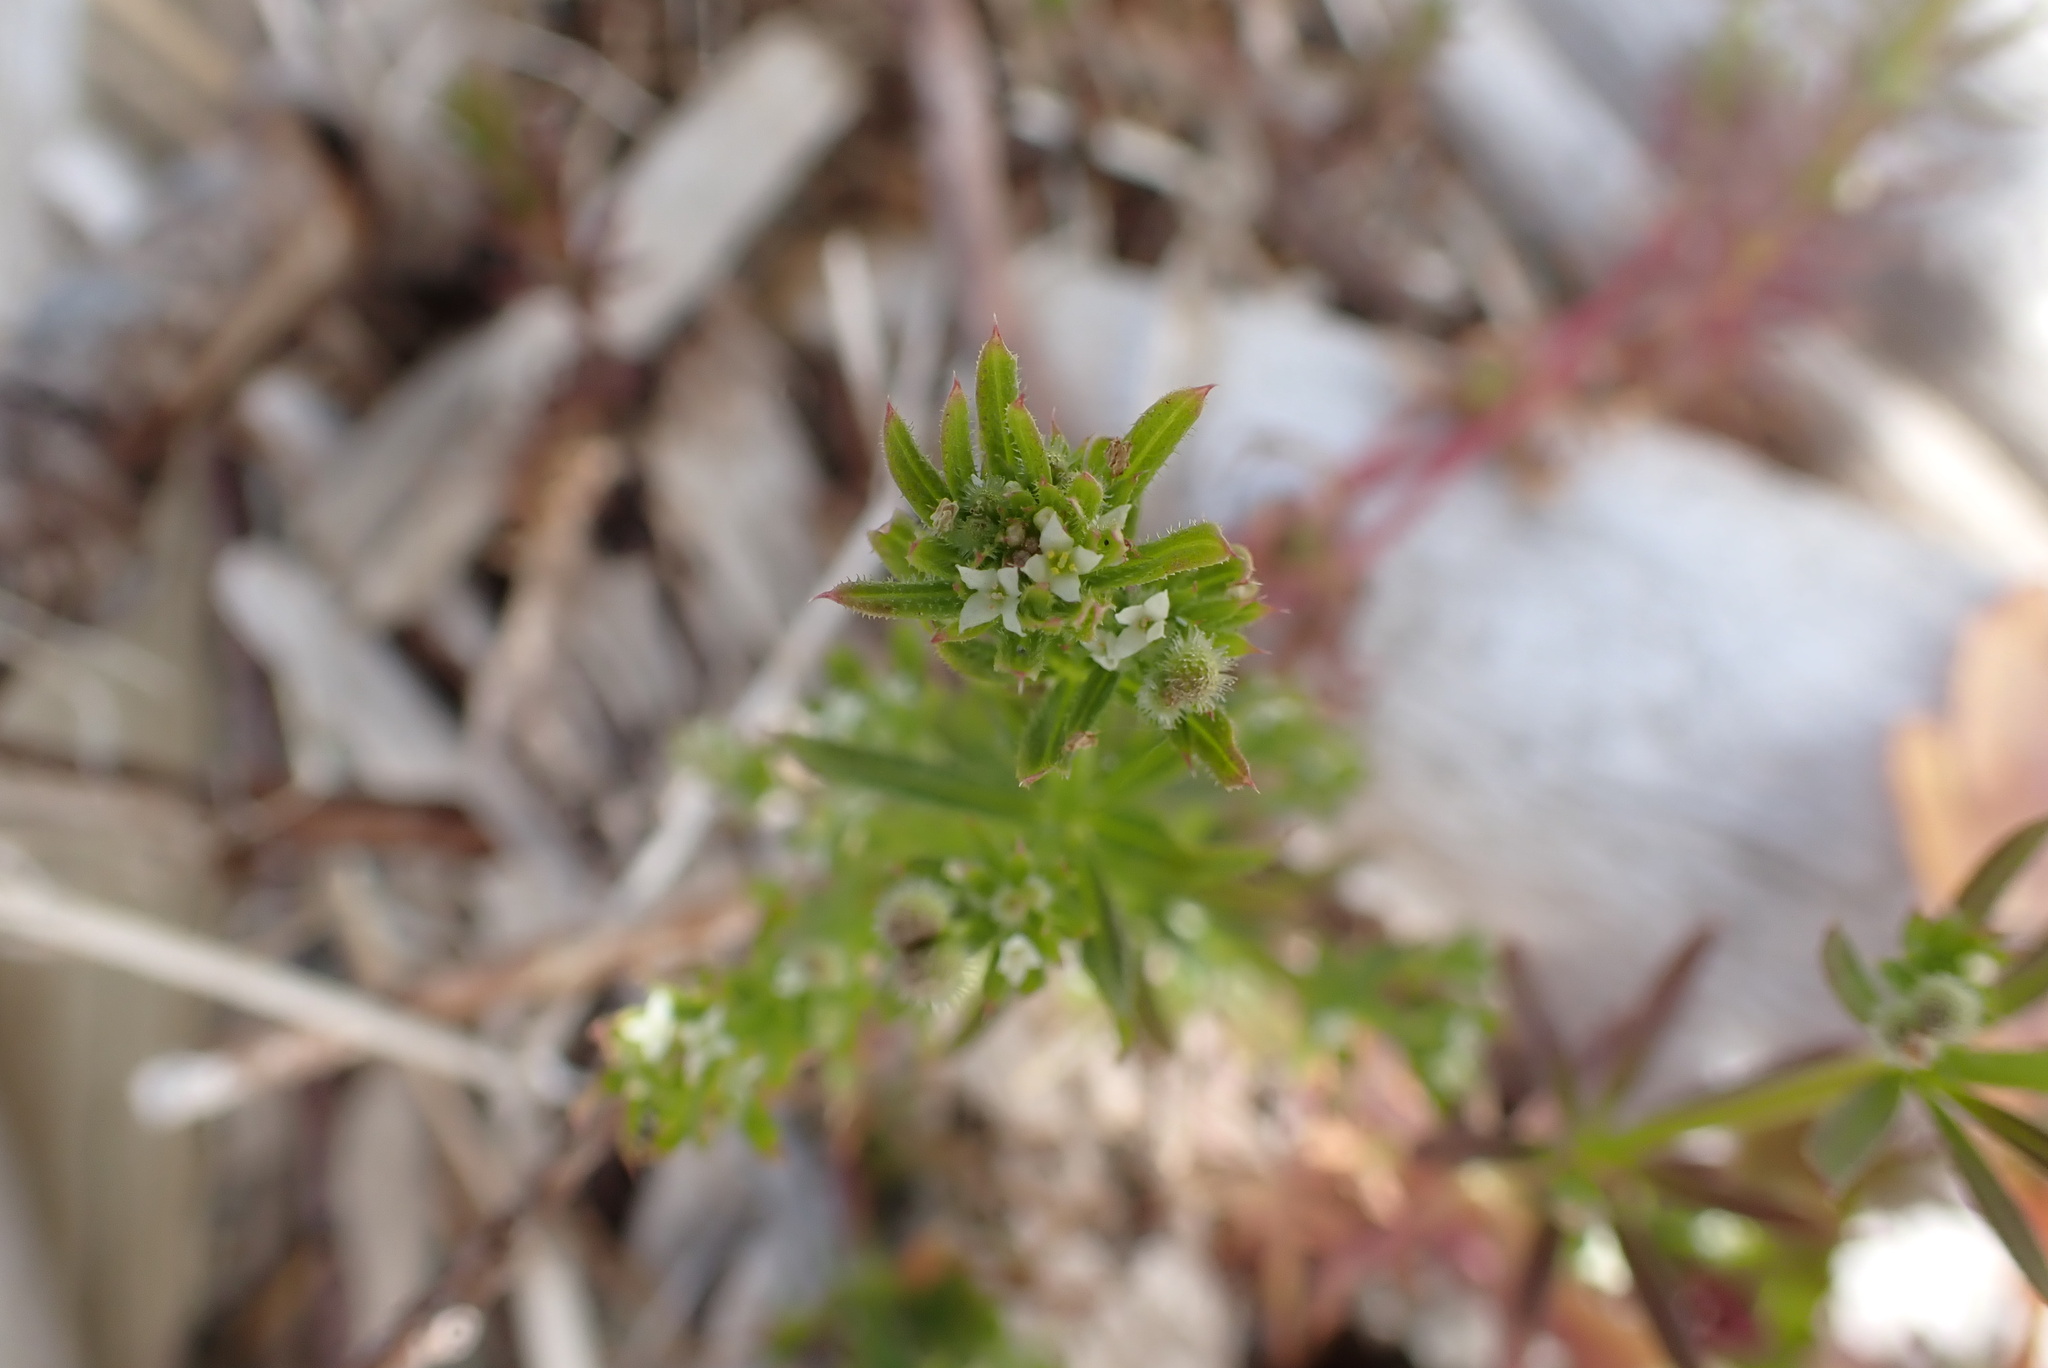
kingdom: Plantae
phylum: Tracheophyta
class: Magnoliopsida
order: Gentianales
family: Rubiaceae
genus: Galium
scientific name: Galium aparine
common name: Cleavers
